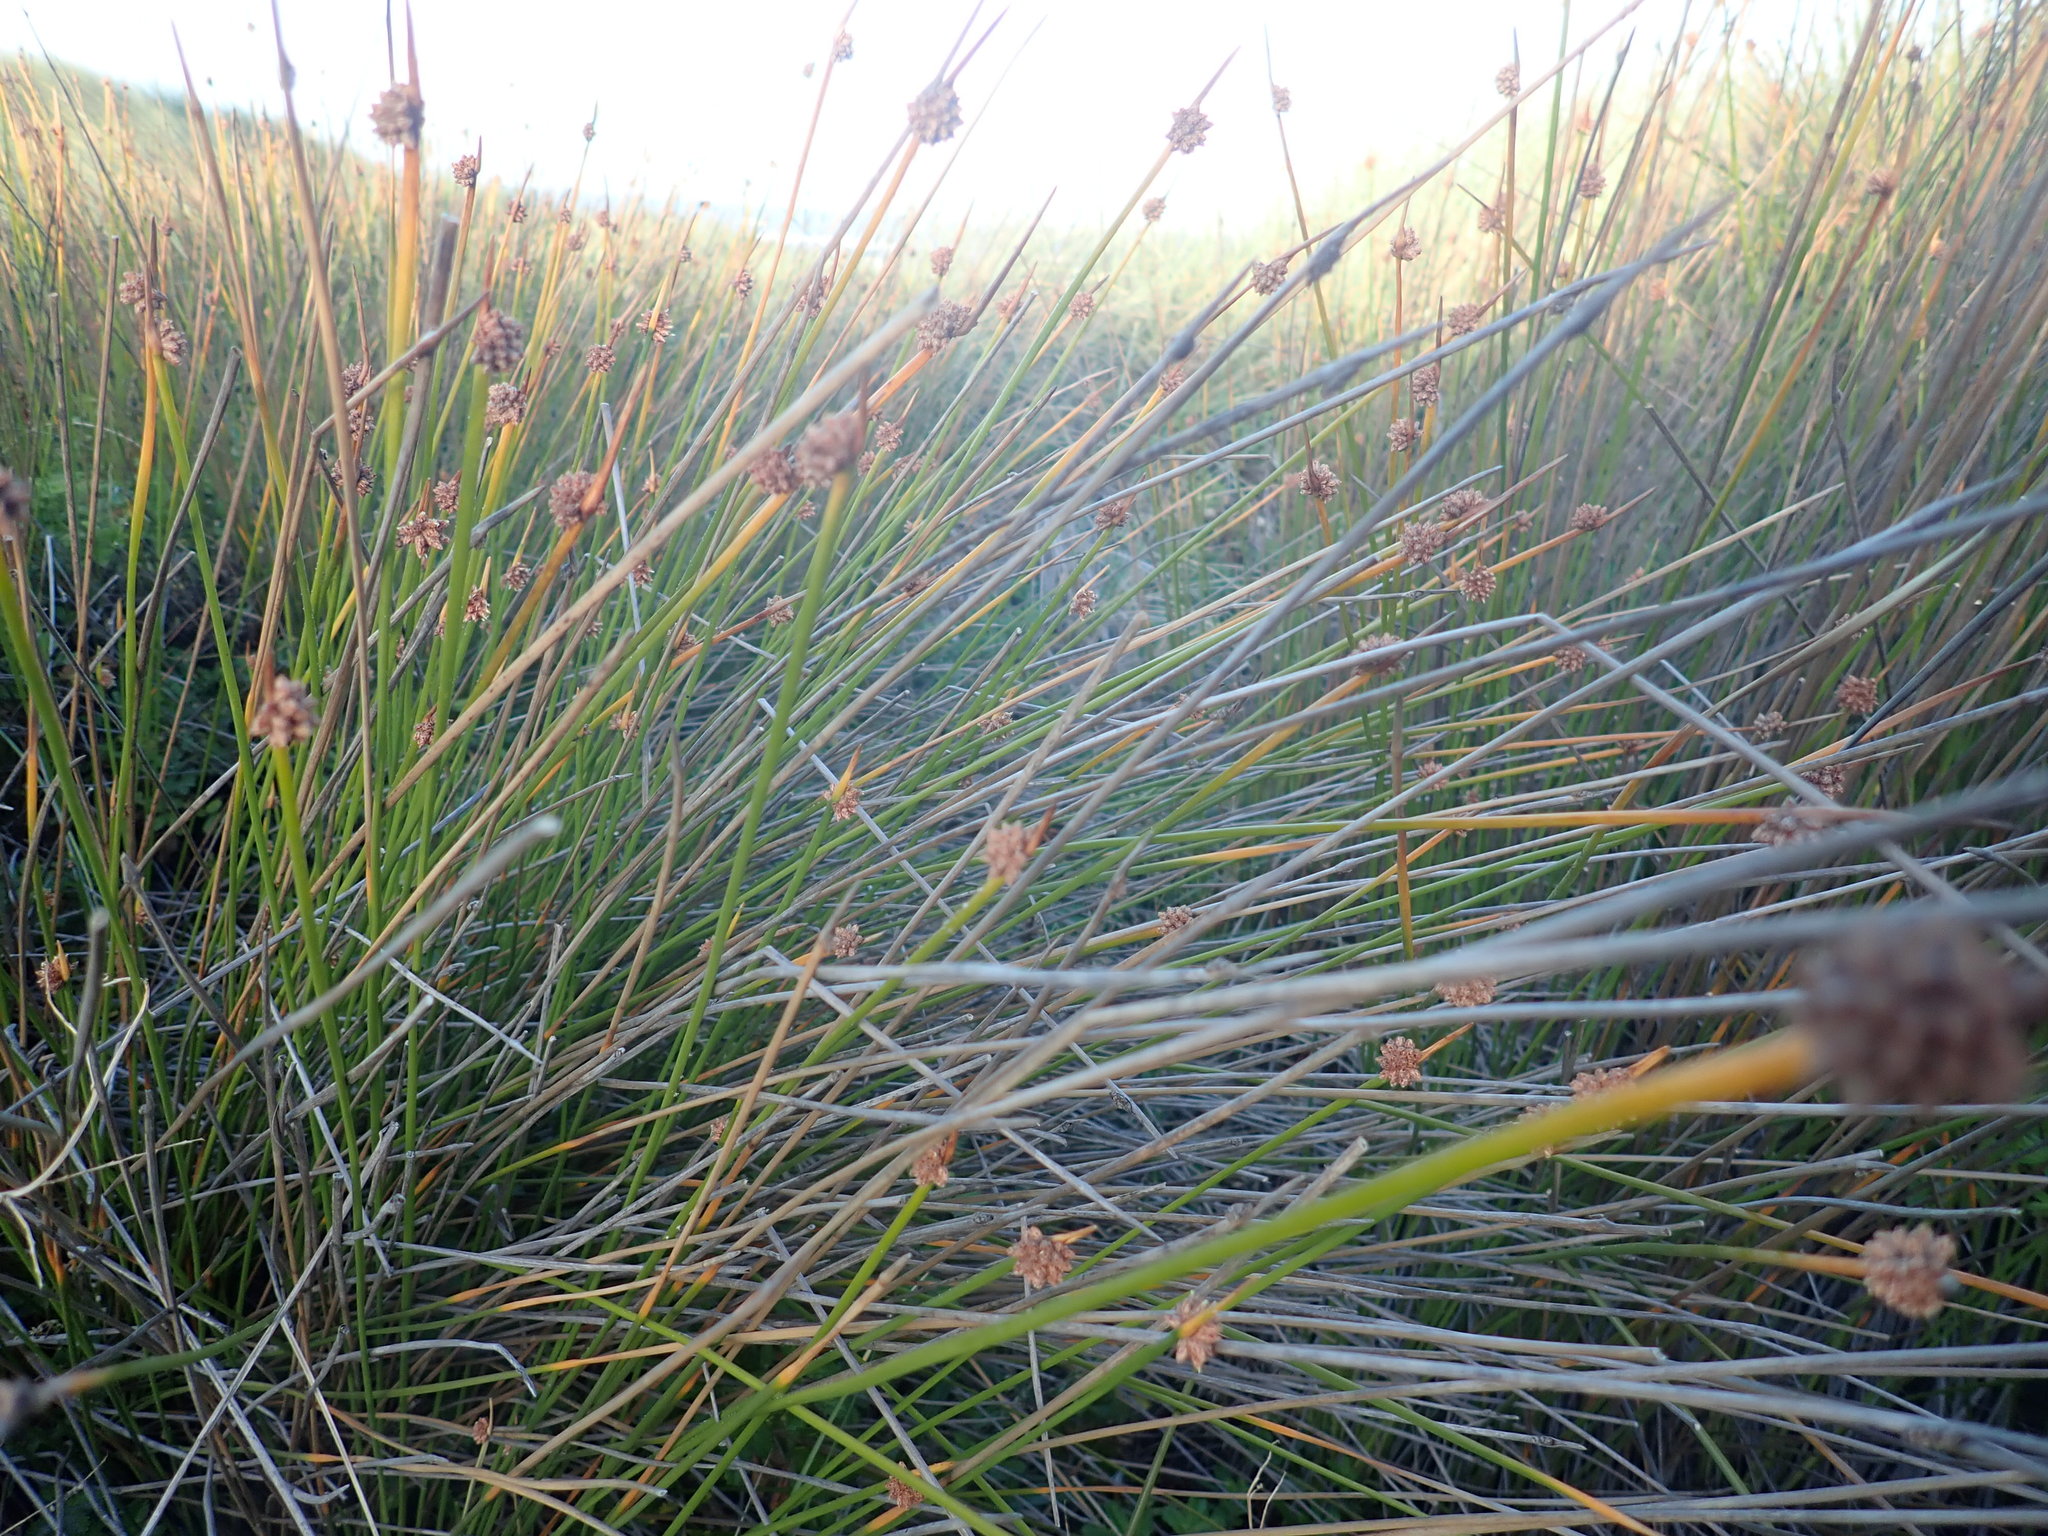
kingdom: Plantae
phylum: Tracheophyta
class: Liliopsida
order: Poales
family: Cyperaceae
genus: Ficinia
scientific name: Ficinia nodosa
